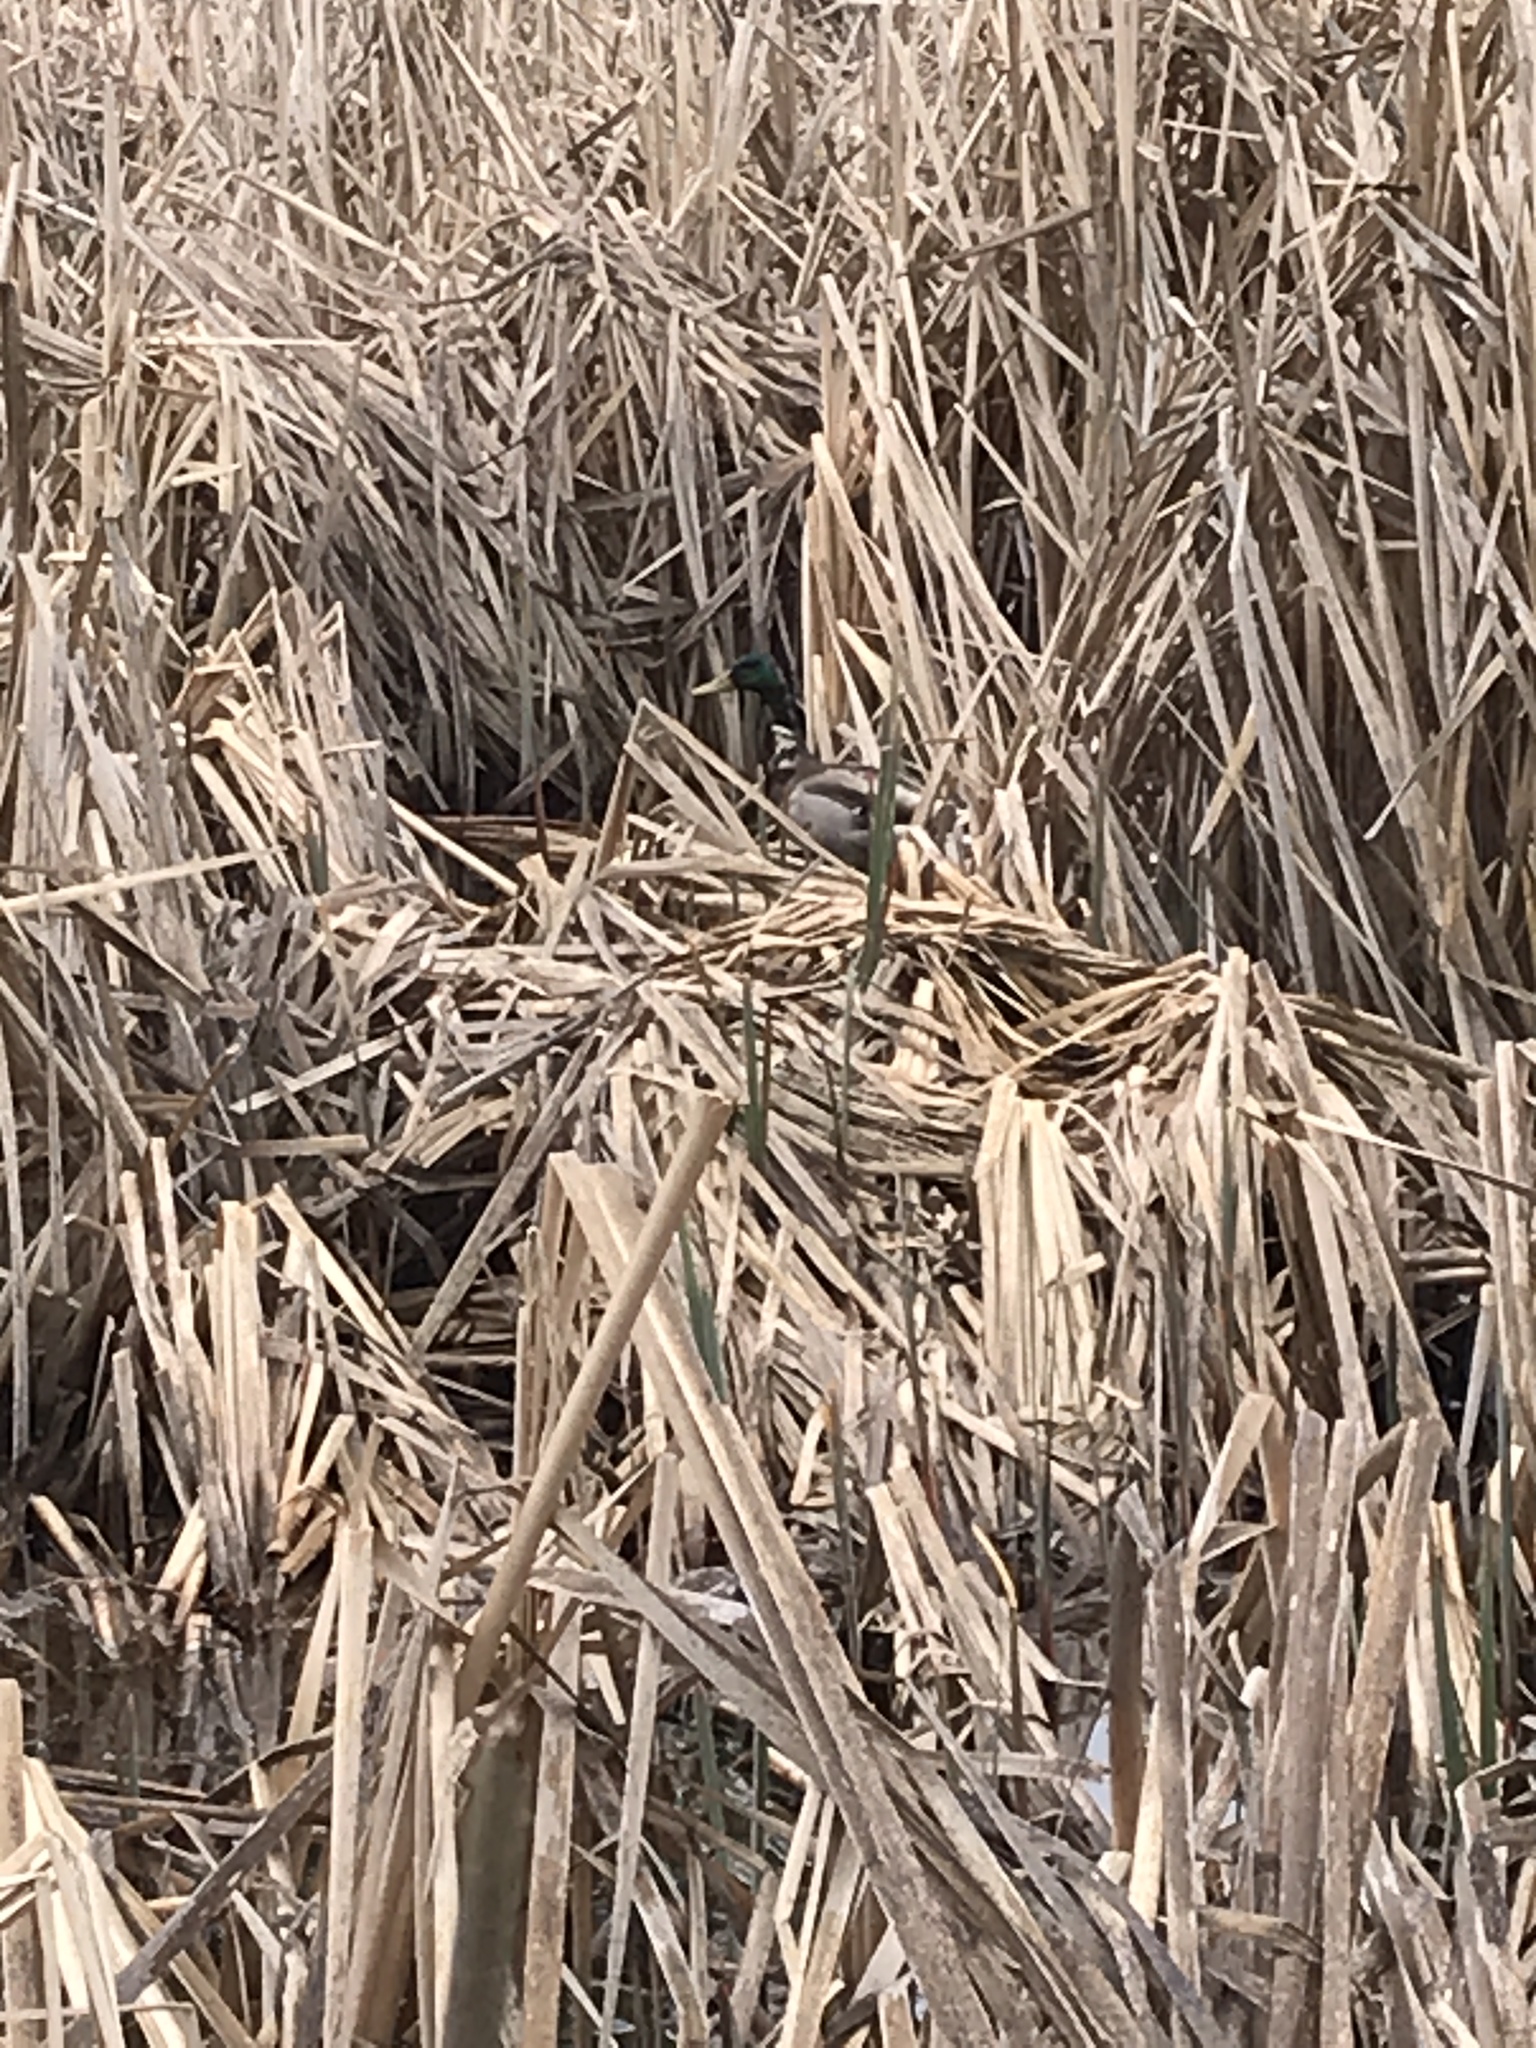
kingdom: Animalia
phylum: Chordata
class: Aves
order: Anseriformes
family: Anatidae
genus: Anas
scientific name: Anas platyrhynchos
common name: Mallard
